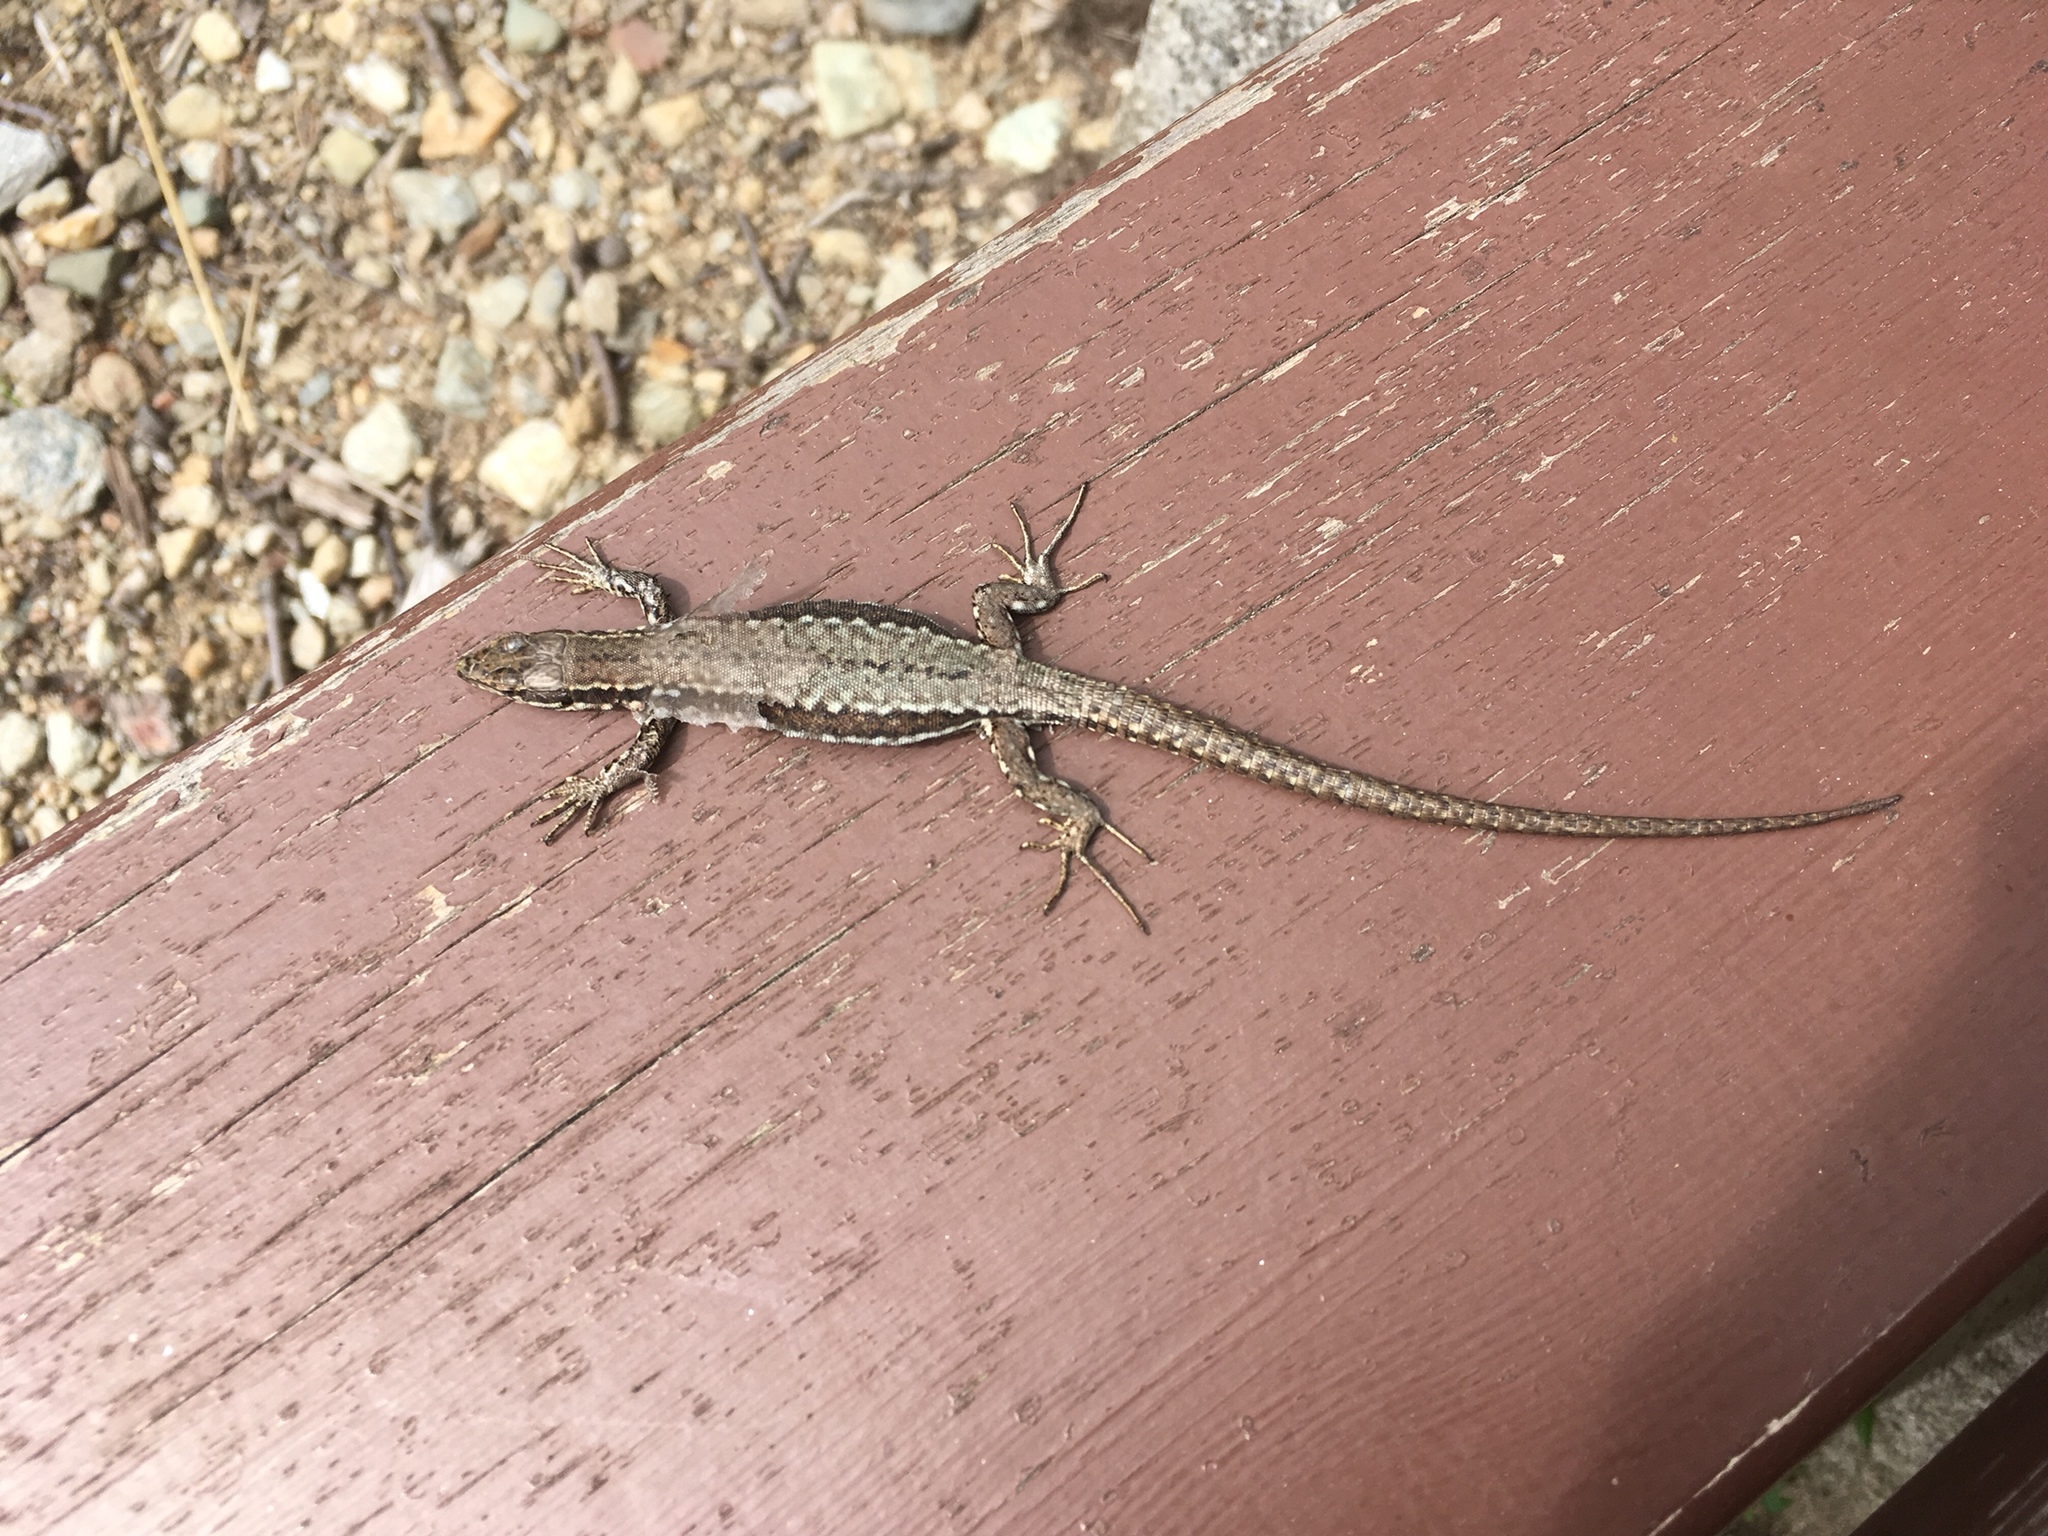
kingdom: Animalia
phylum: Chordata
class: Squamata
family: Lacertidae
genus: Podarcis
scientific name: Podarcis muralis
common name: Common wall lizard
